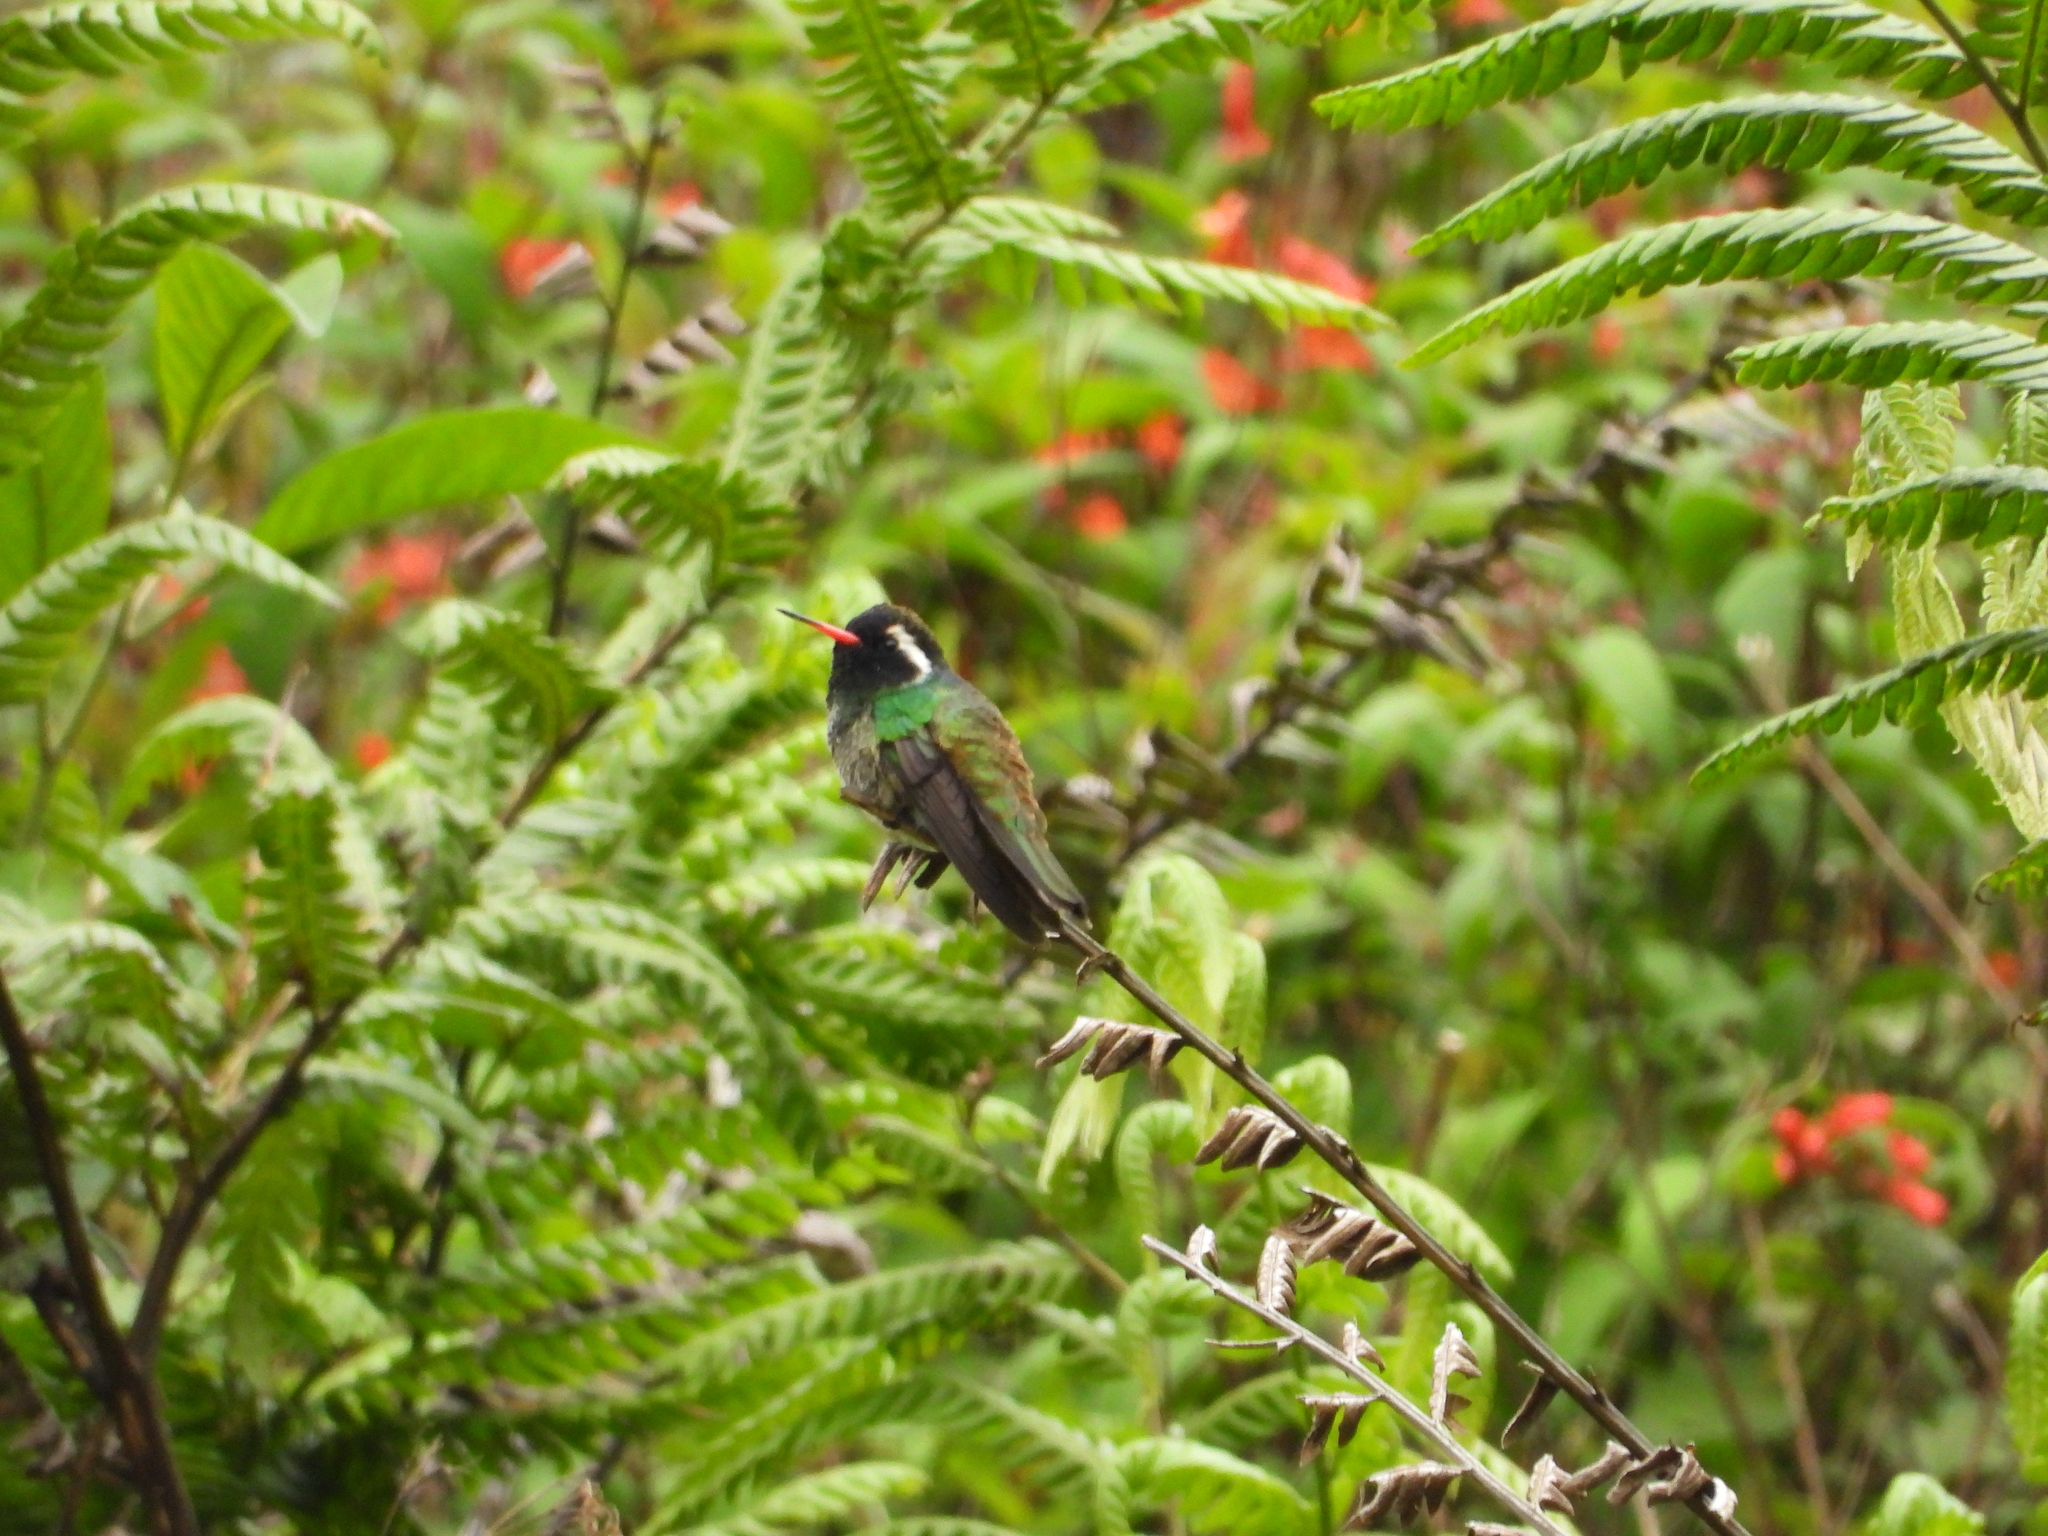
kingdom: Animalia
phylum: Chordata
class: Aves
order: Apodiformes
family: Trochilidae
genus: Basilinna
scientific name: Basilinna leucotis
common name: White-eared hummingbird
